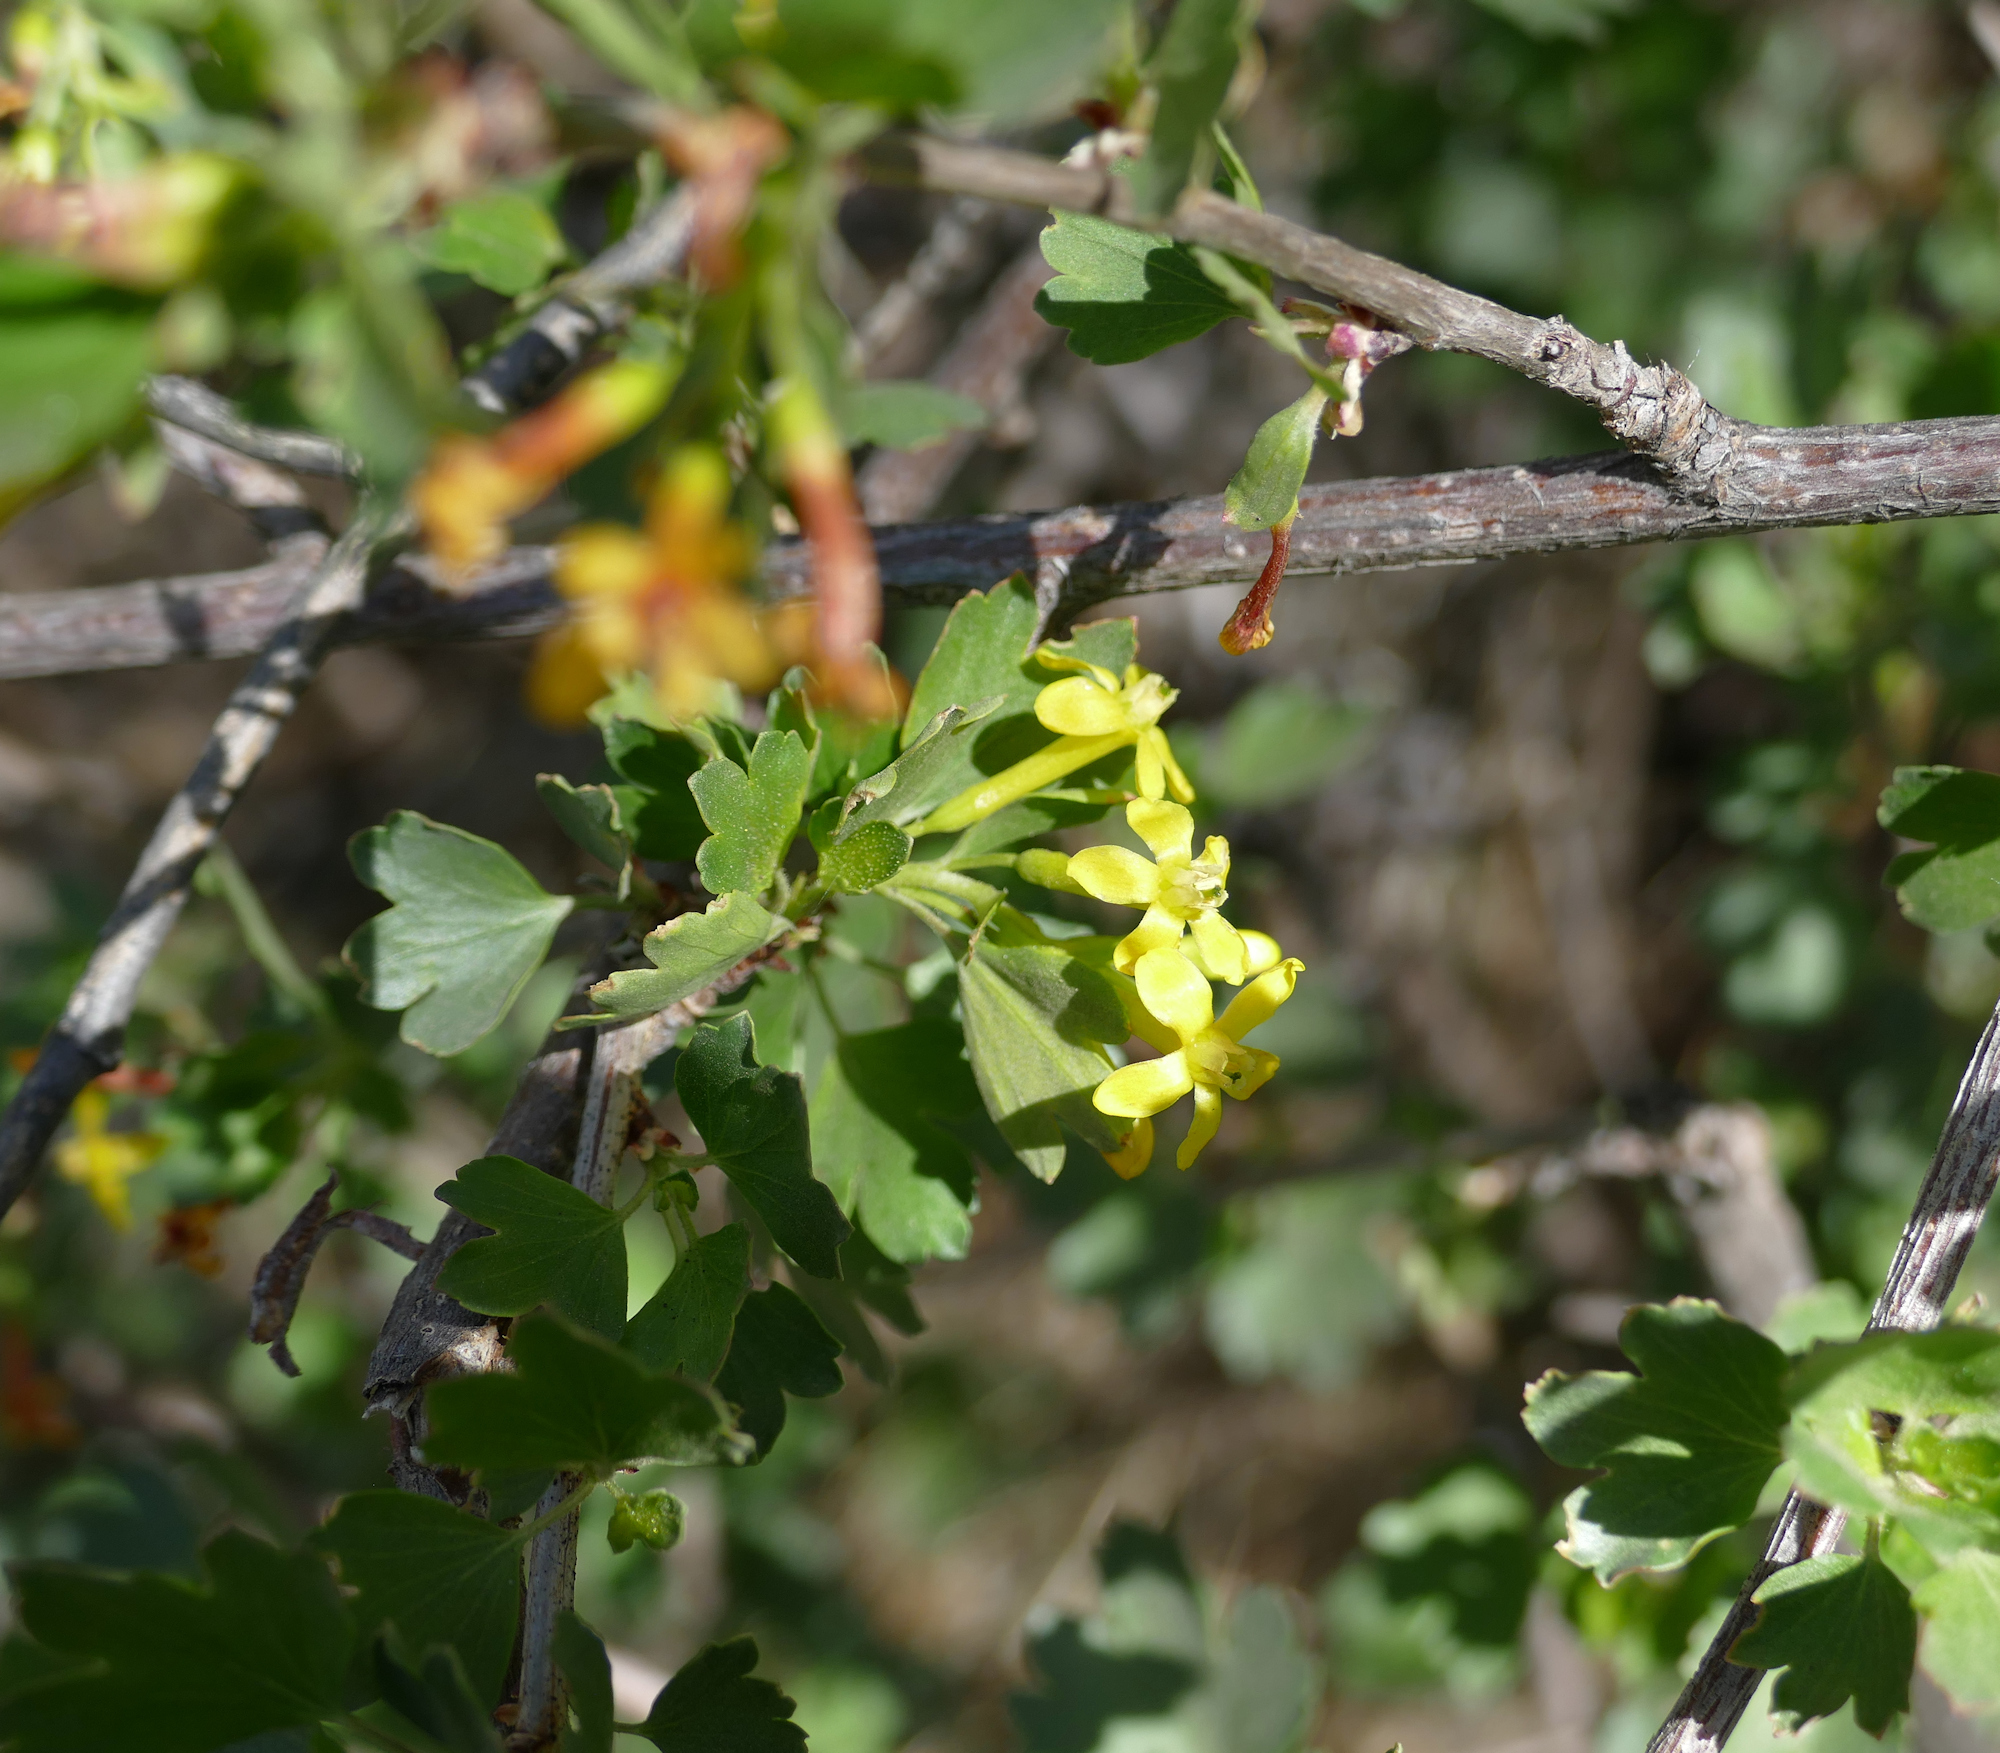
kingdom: Plantae
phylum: Tracheophyta
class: Magnoliopsida
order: Saxifragales
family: Grossulariaceae
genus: Ribes
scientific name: Ribes aureum
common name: Golden currant
